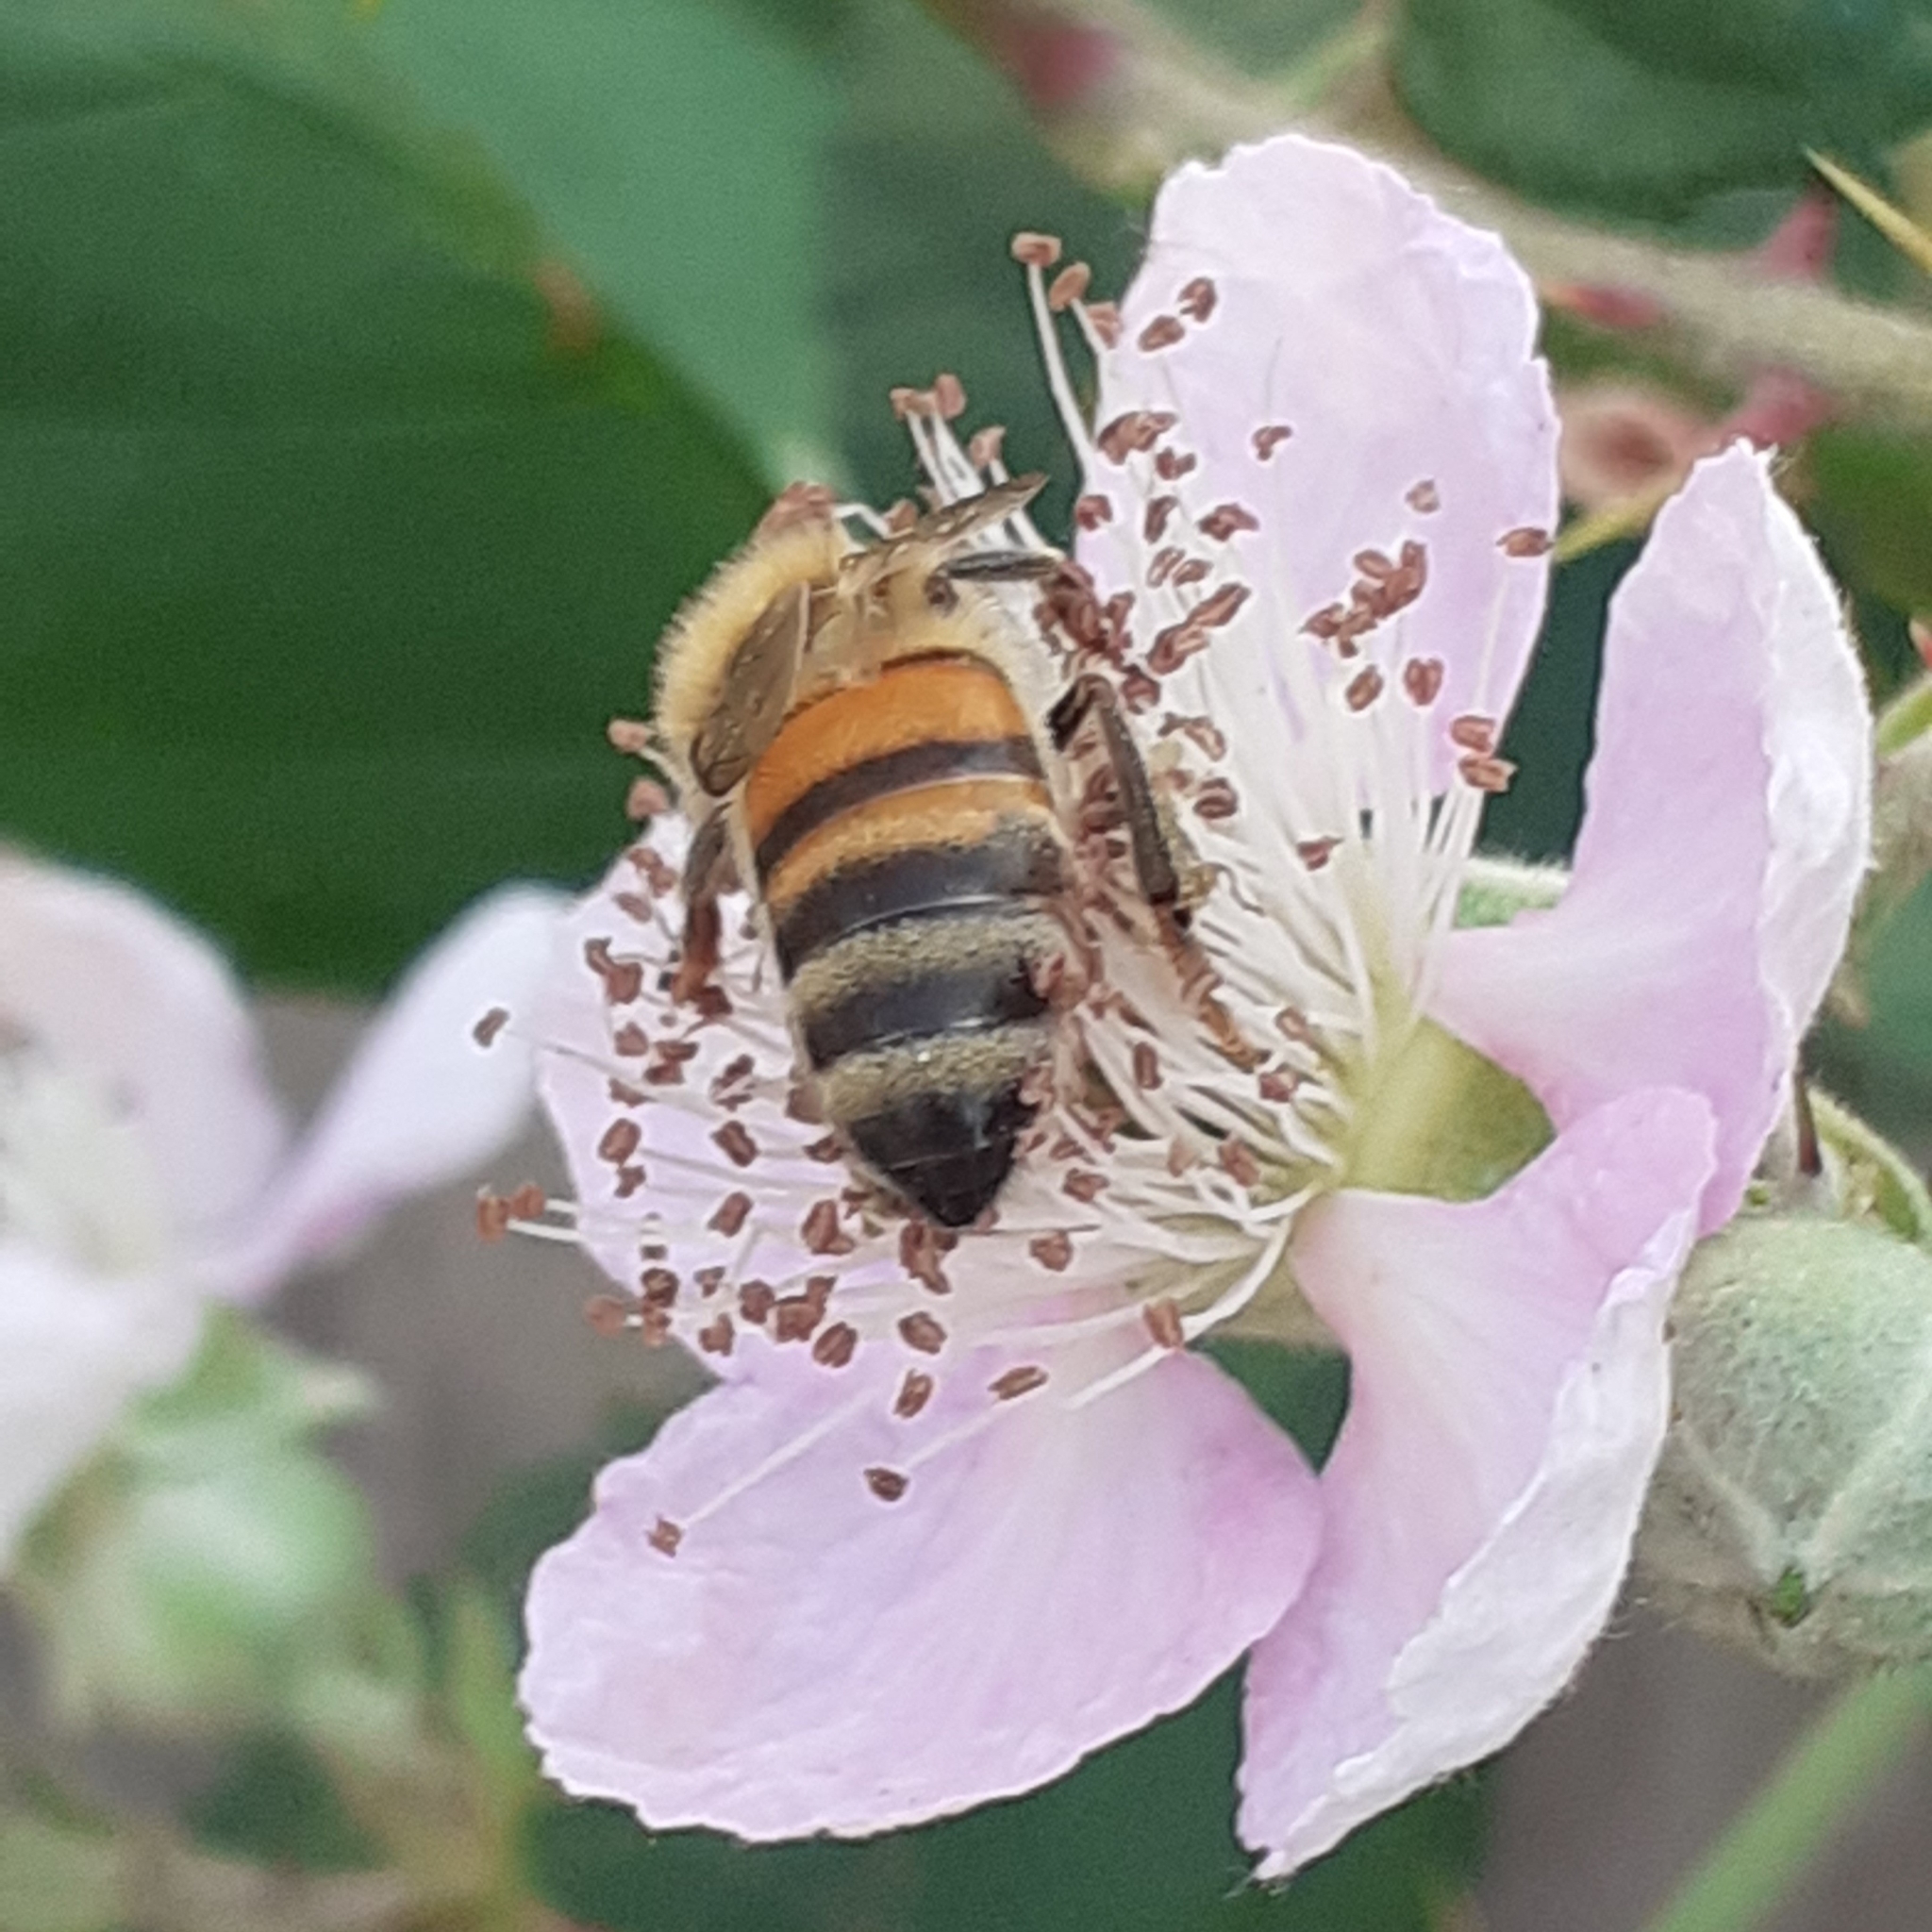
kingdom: Animalia
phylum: Arthropoda
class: Insecta
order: Hymenoptera
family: Apidae
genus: Apis
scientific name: Apis mellifera
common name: Honey bee
